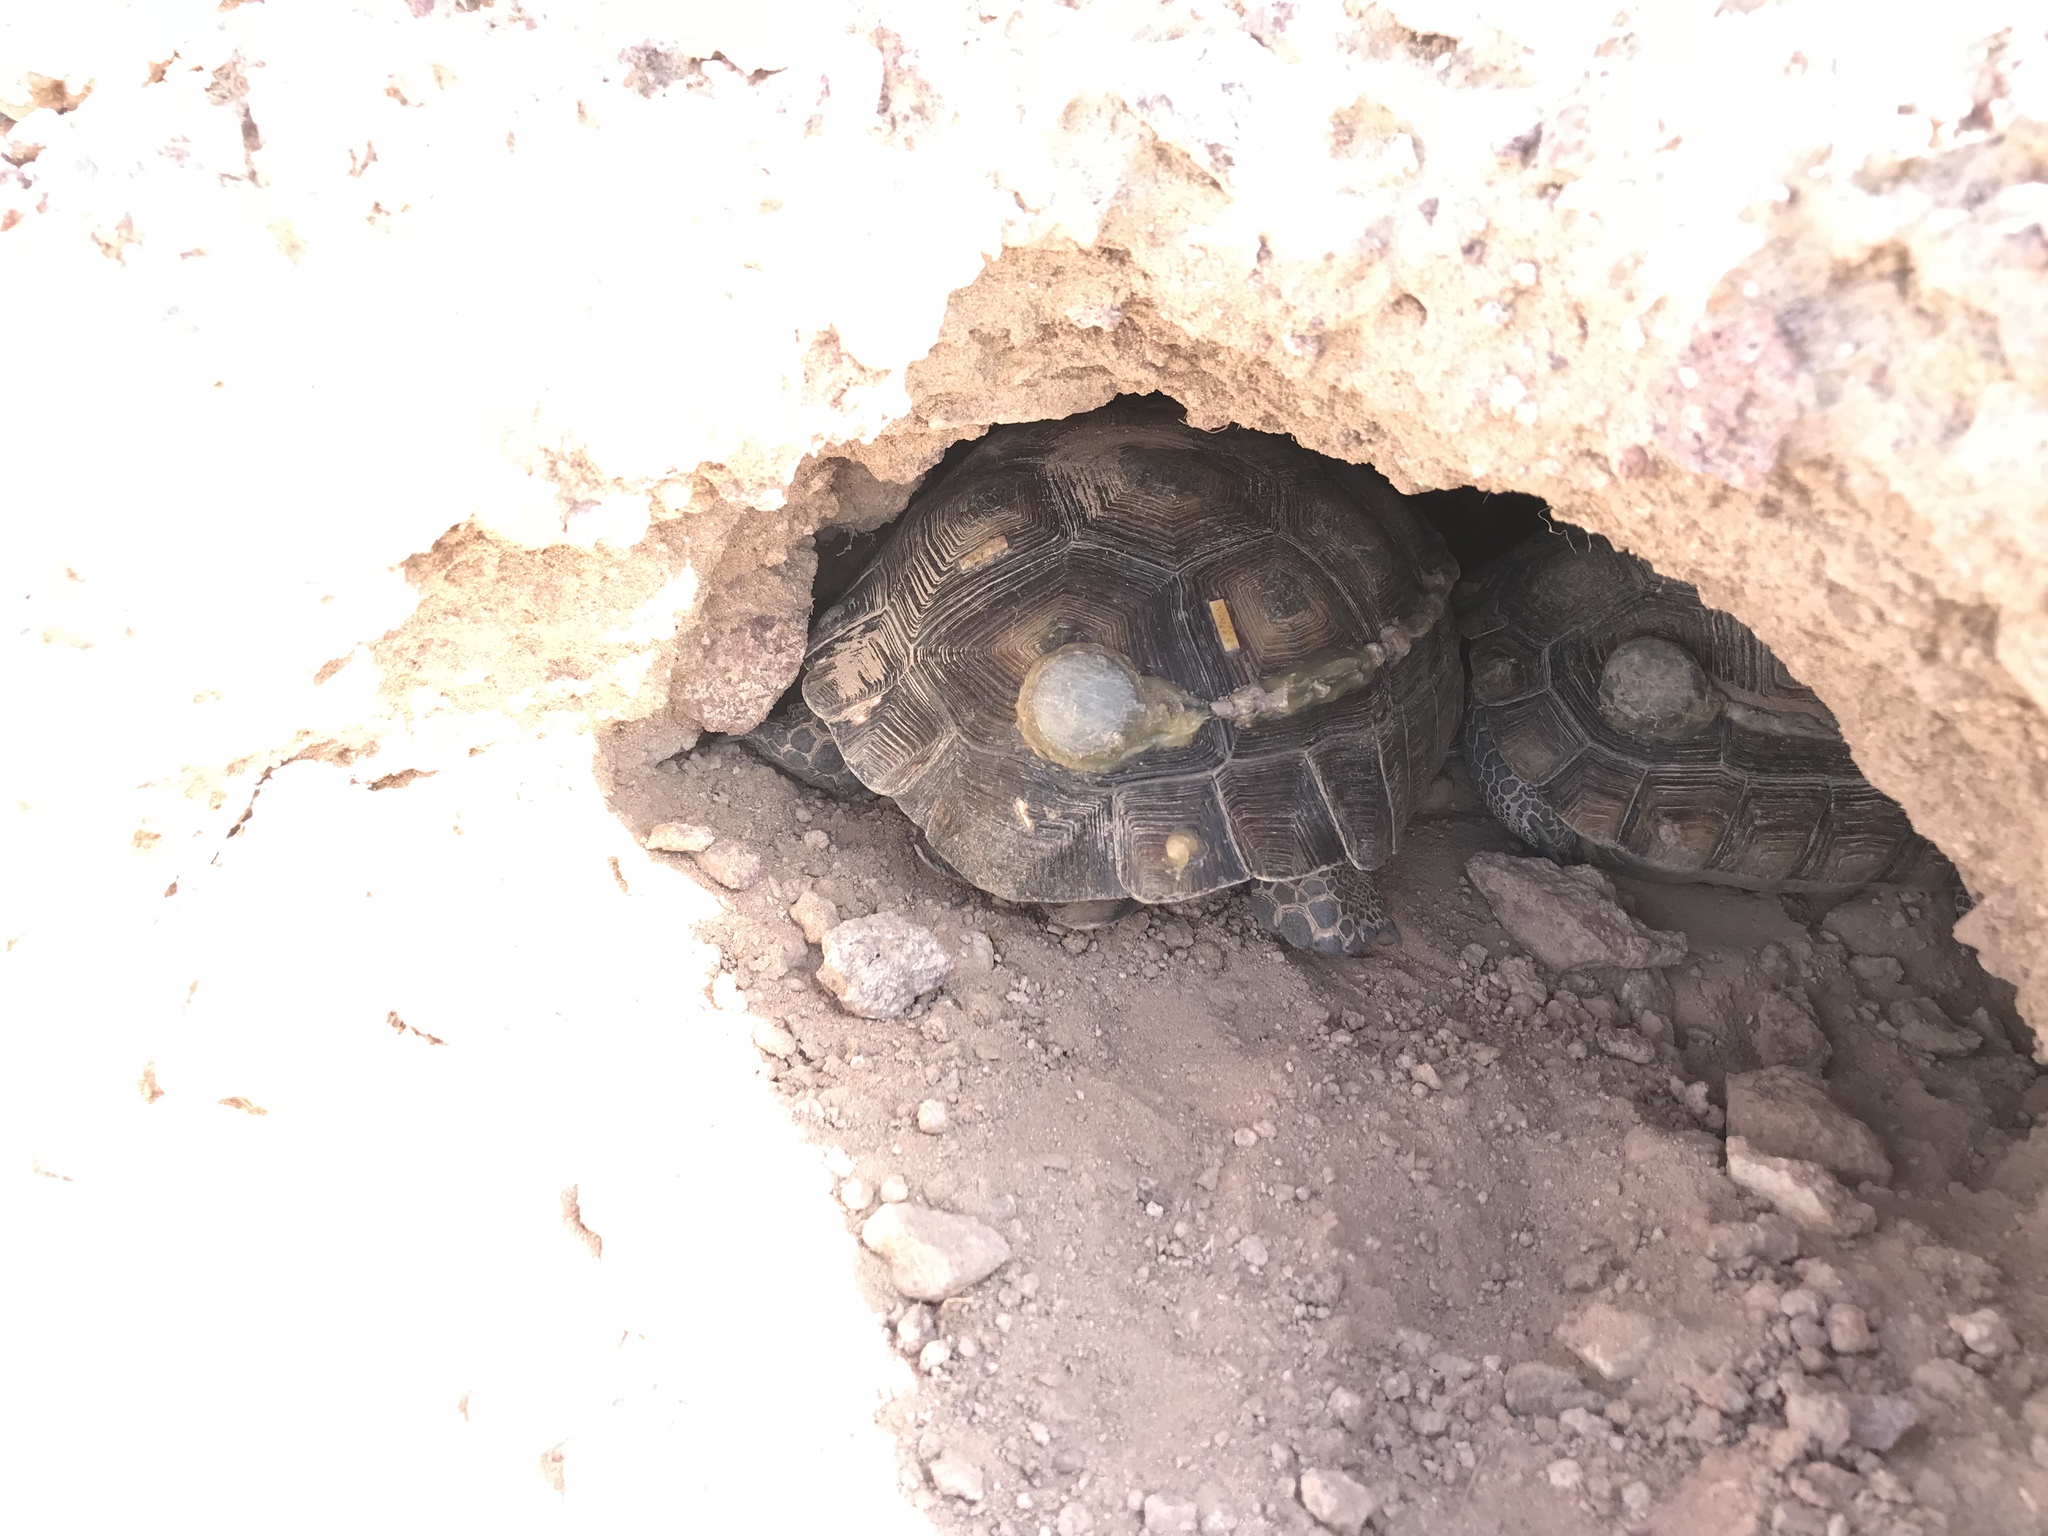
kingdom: Animalia
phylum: Chordata
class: Testudines
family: Testudinidae
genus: Gopherus
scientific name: Gopherus agassizii
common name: Mojave desert tortoise
